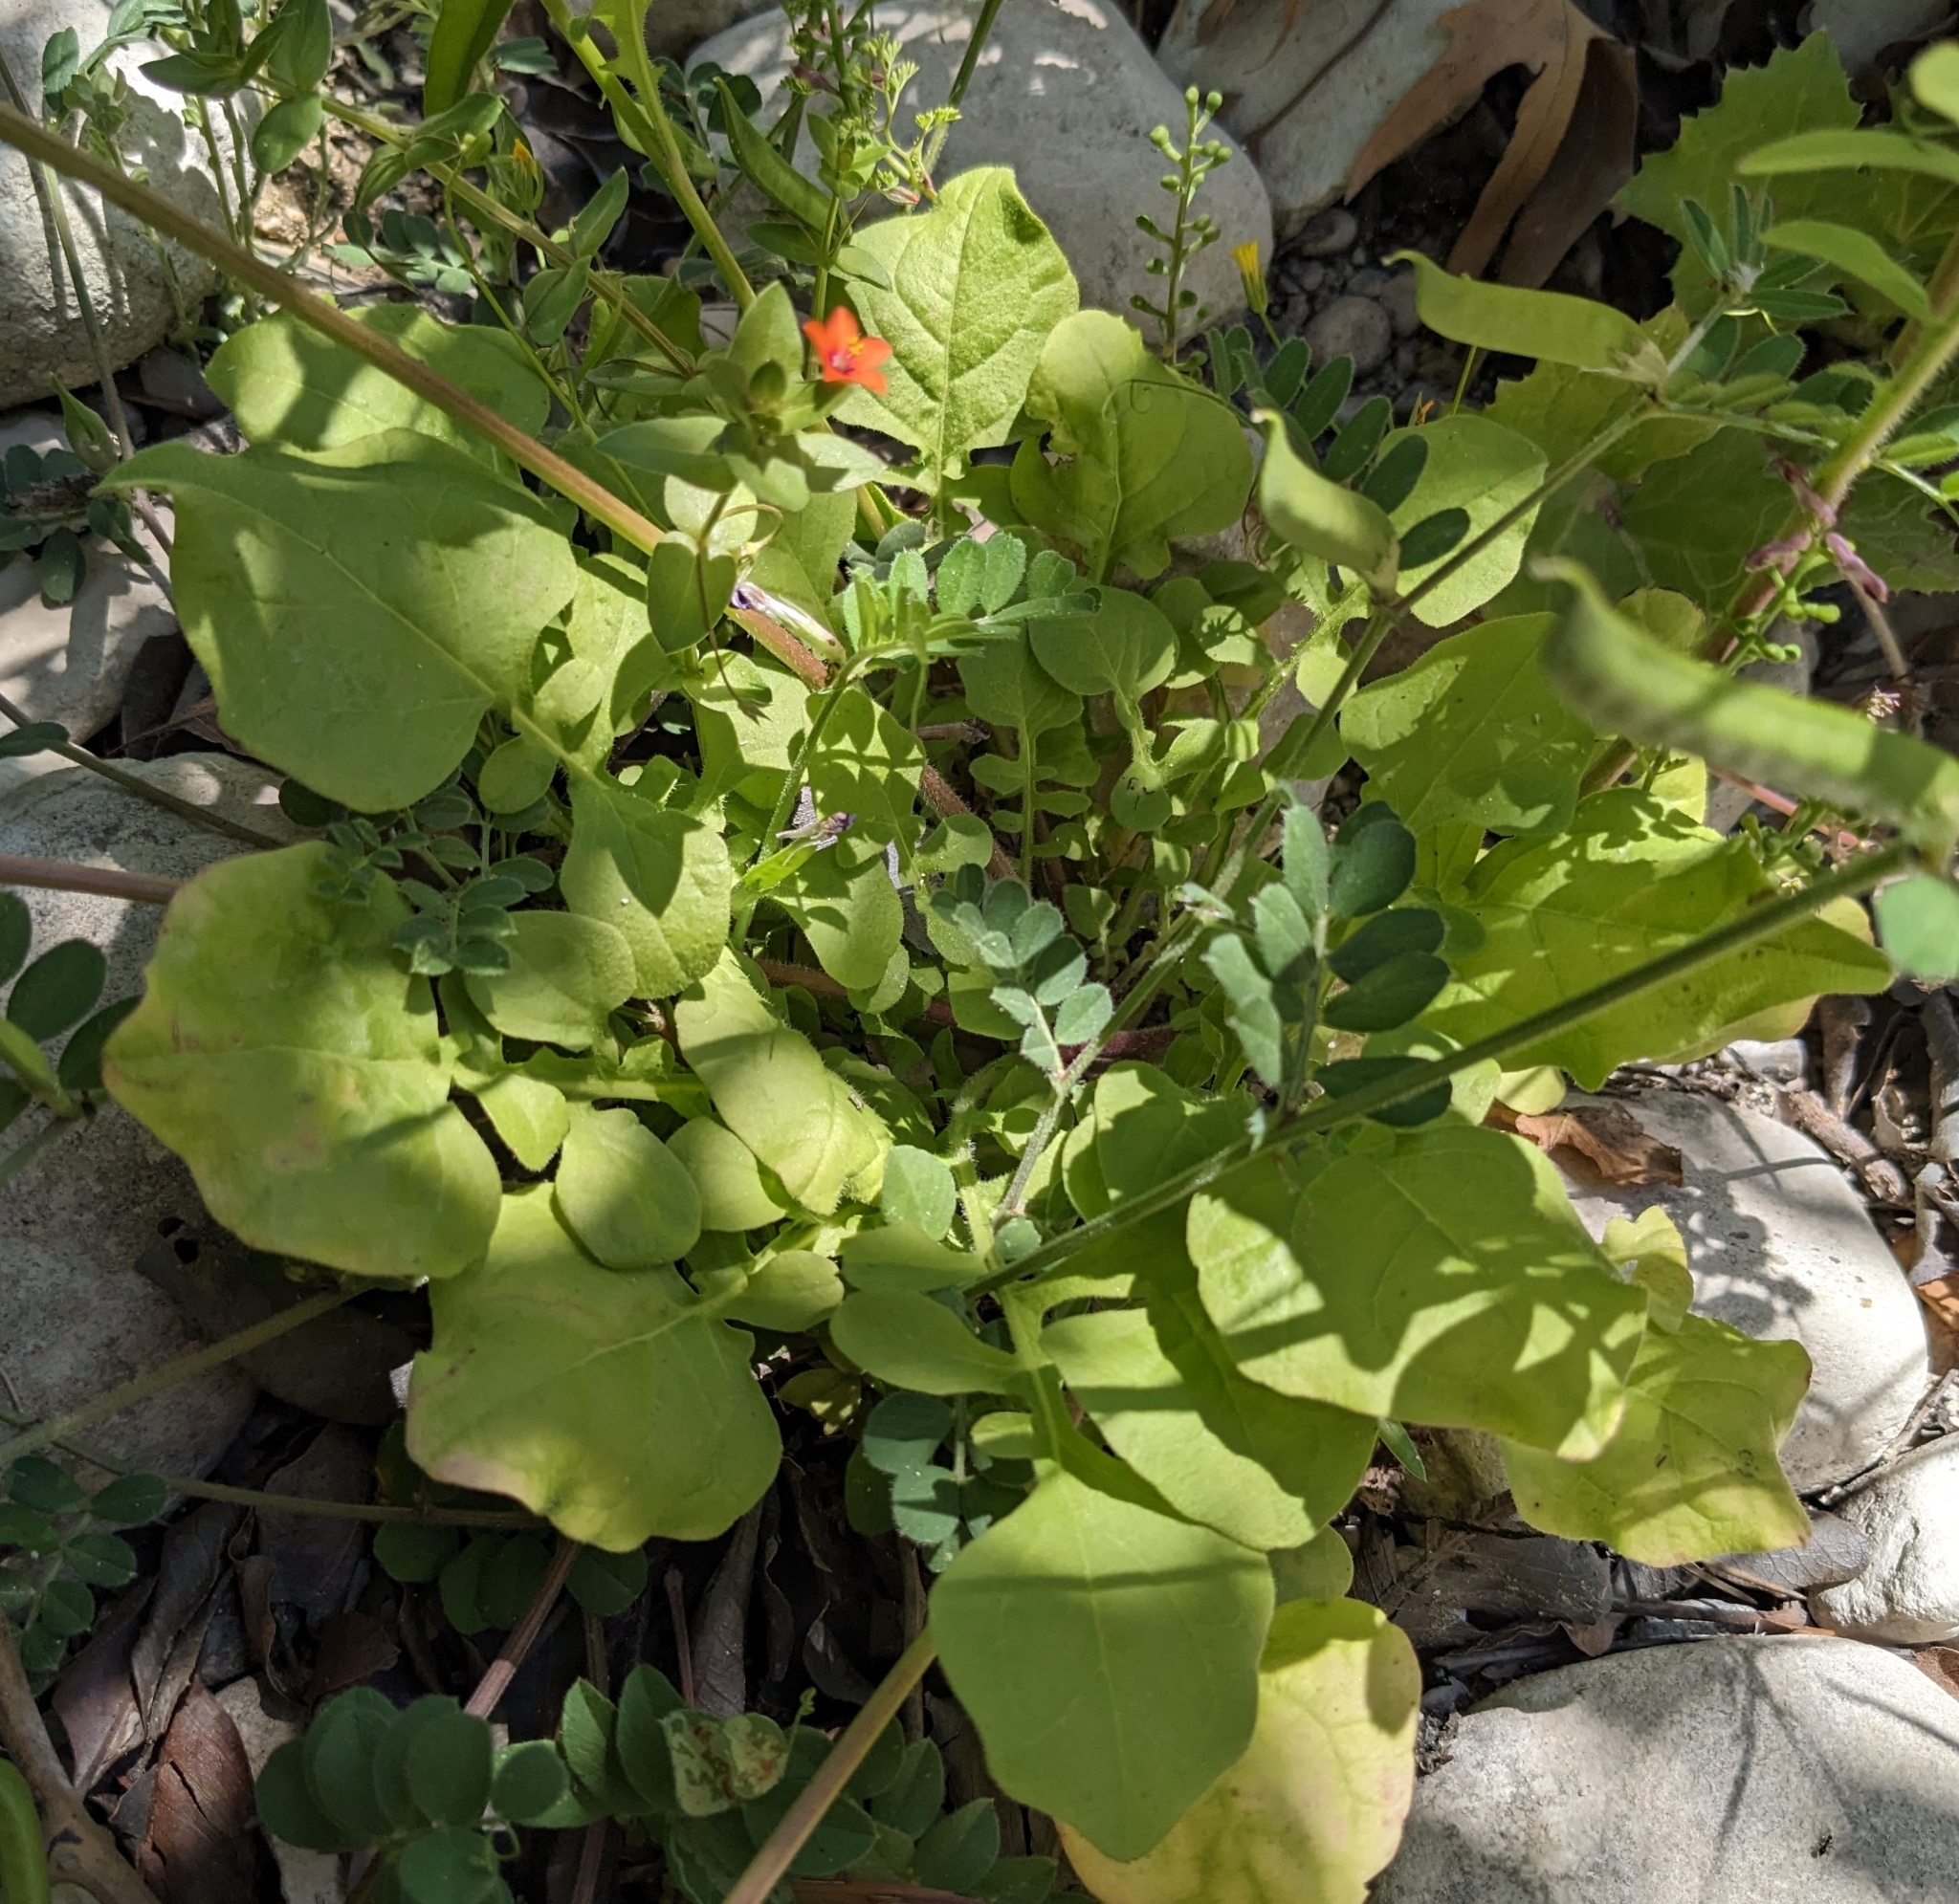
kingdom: Plantae
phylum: Tracheophyta
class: Magnoliopsida
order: Ericales
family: Primulaceae
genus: Lysimachia
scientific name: Lysimachia arvensis
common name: Scarlet pimpernel
